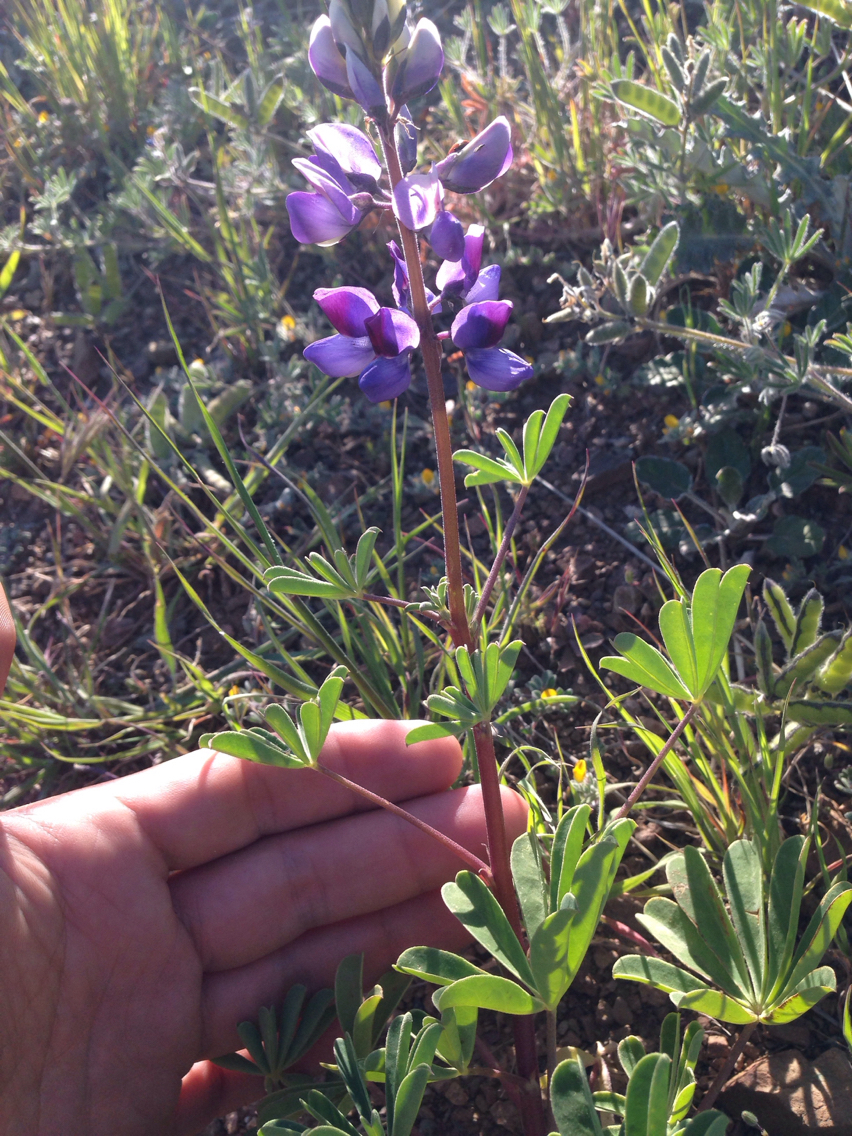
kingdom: Plantae
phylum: Tracheophyta
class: Magnoliopsida
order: Fabales
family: Fabaceae
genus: Lupinus
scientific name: Lupinus succulentus
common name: Arroyo lupine
